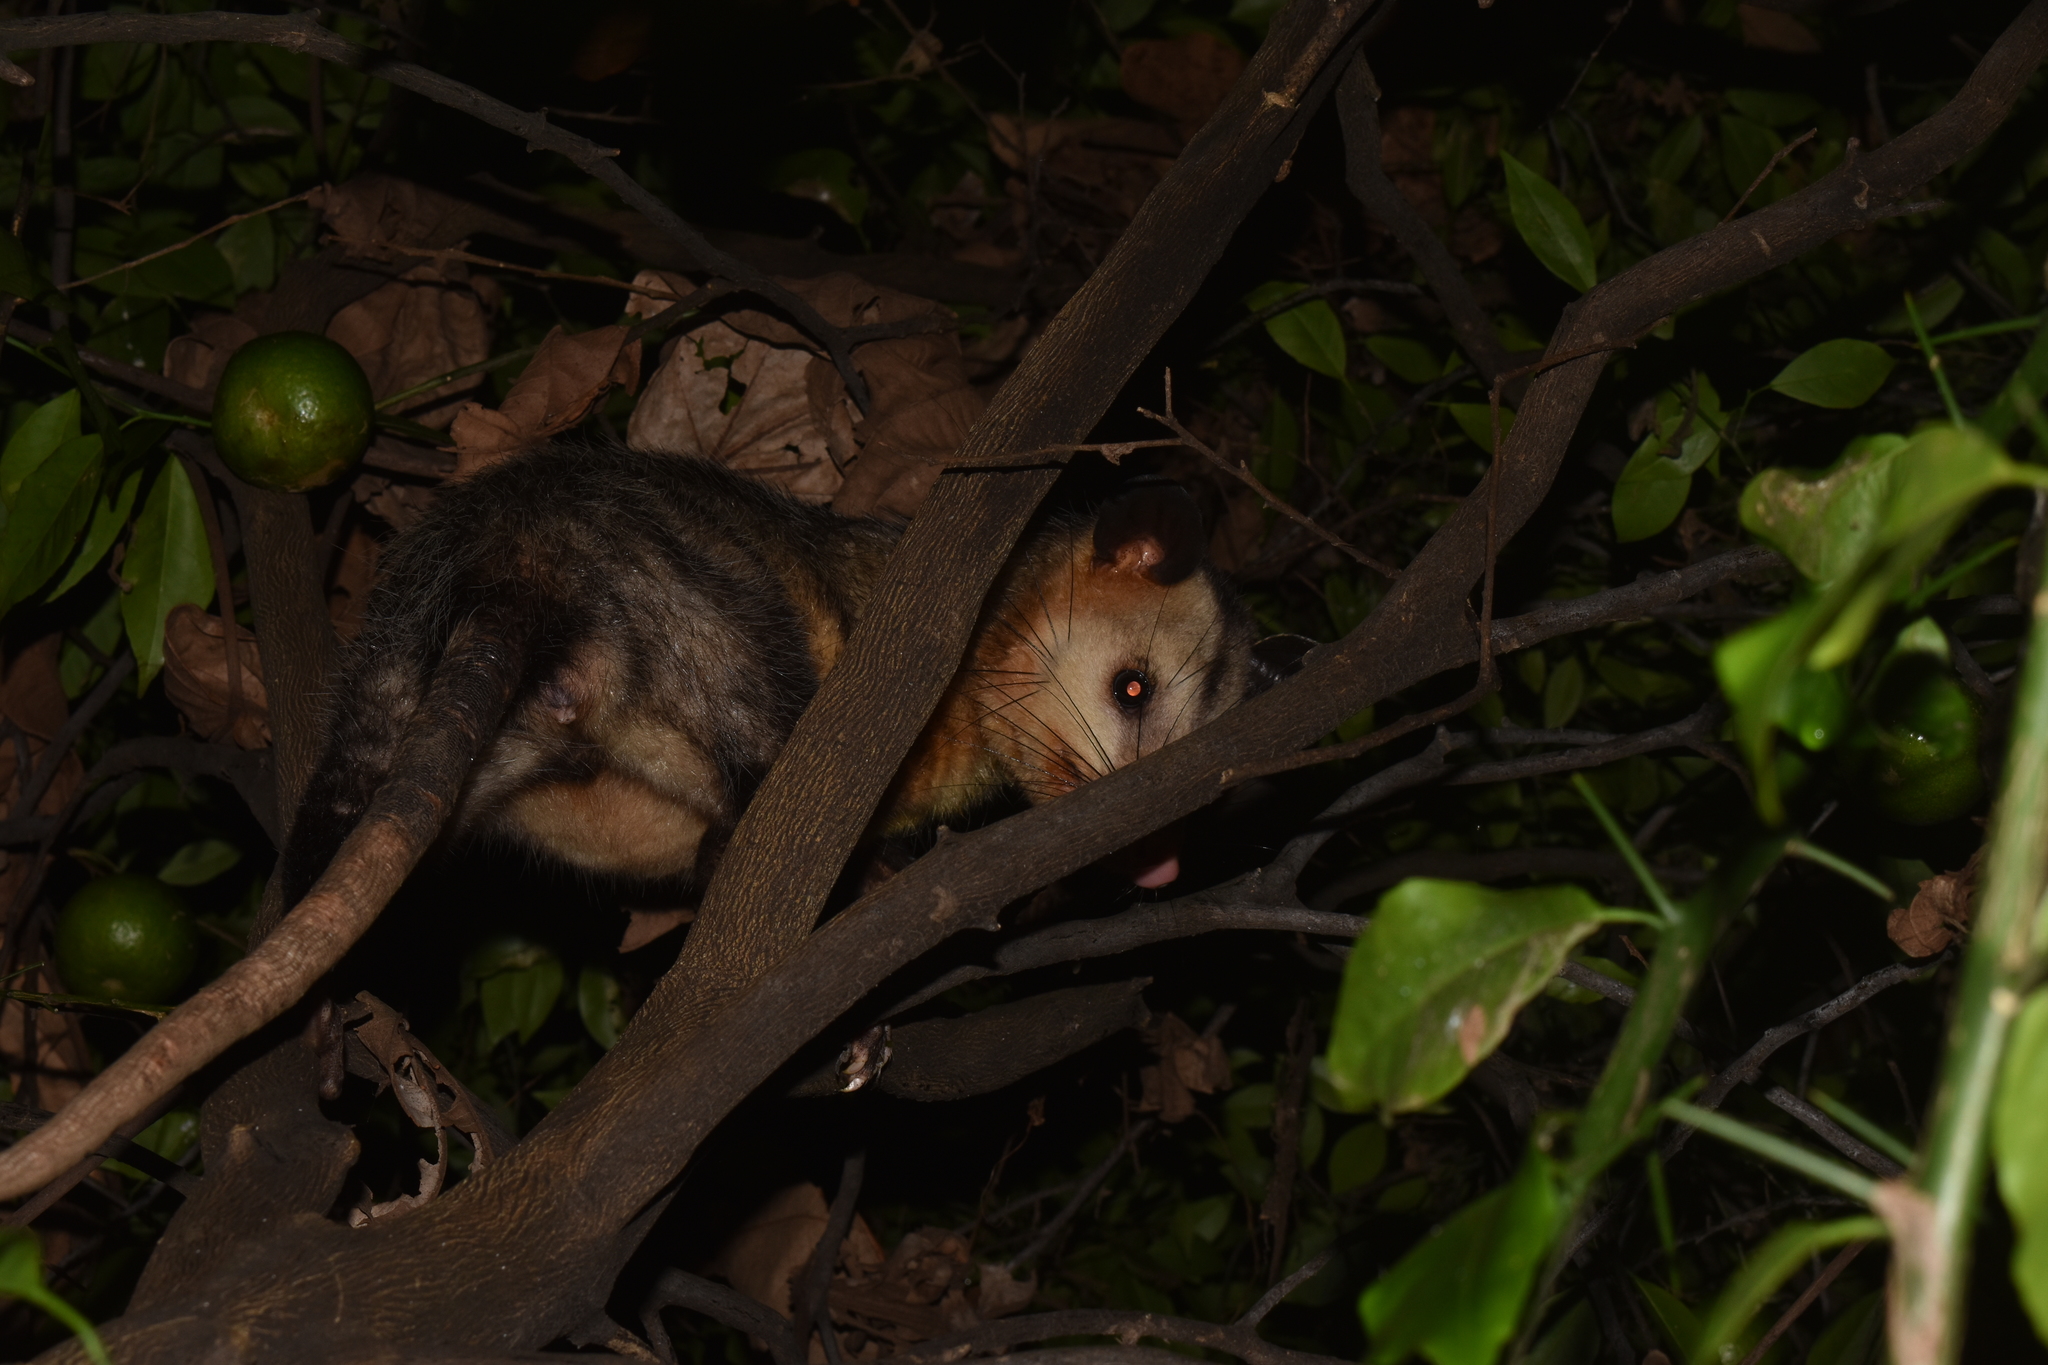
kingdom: Animalia
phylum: Chordata
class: Mammalia
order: Didelphimorphia
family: Didelphidae
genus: Didelphis
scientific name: Didelphis marsupialis
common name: Common opossum
